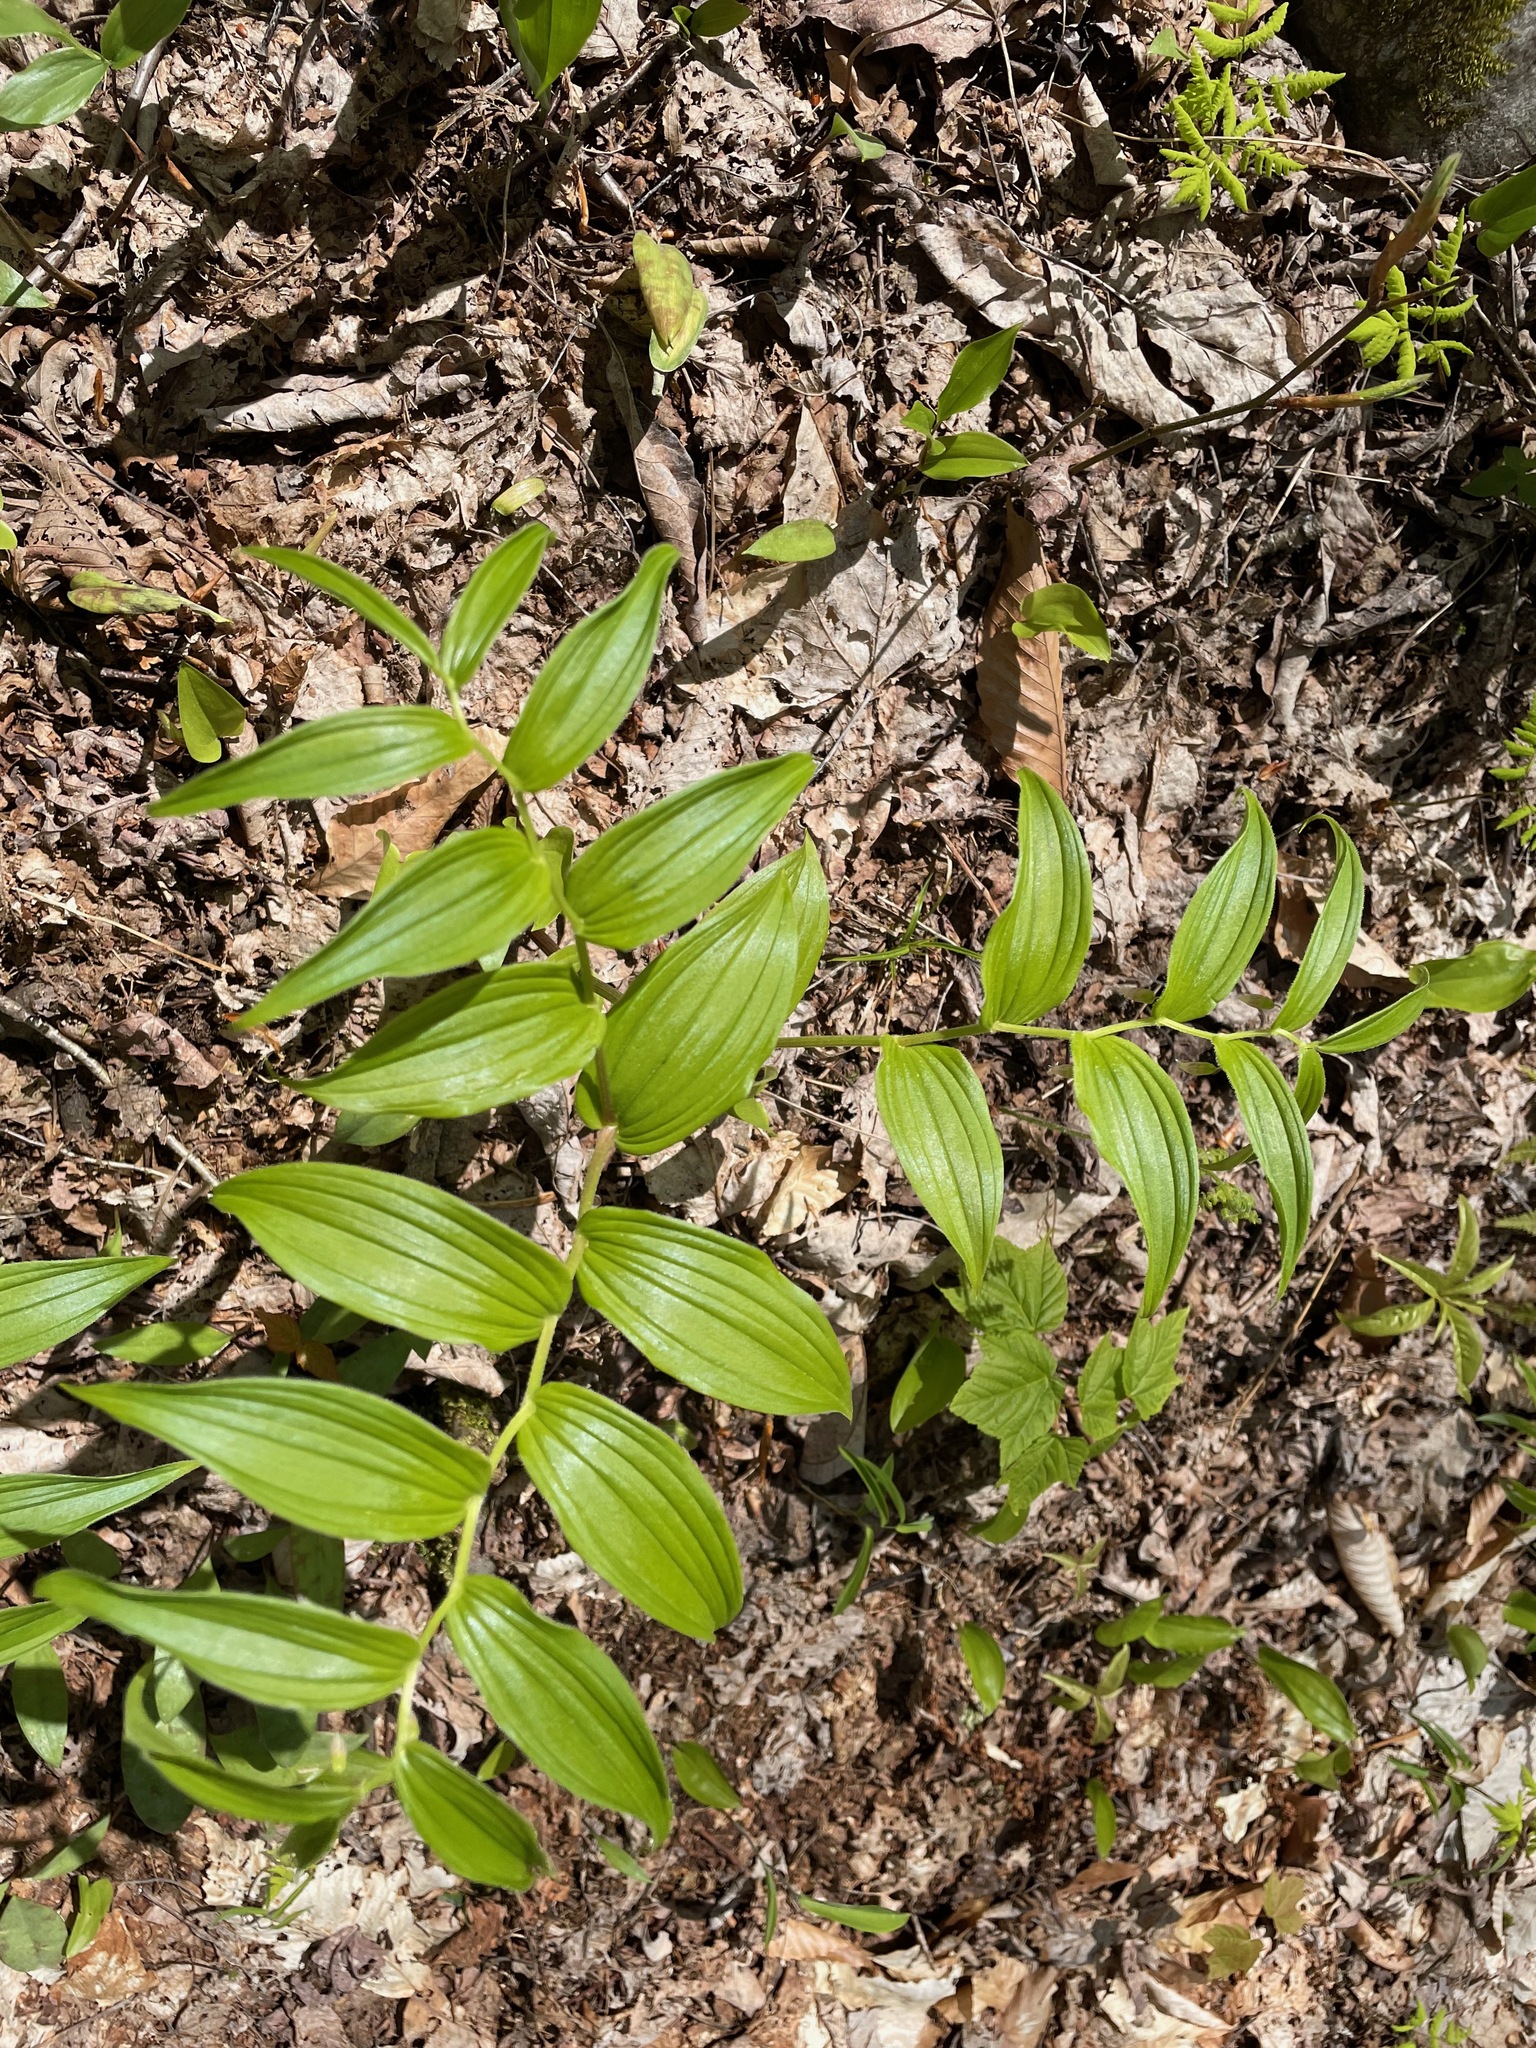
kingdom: Plantae
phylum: Tracheophyta
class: Liliopsida
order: Liliales
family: Liliaceae
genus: Streptopus
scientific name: Streptopus lanceolatus
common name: Rose mandarin
